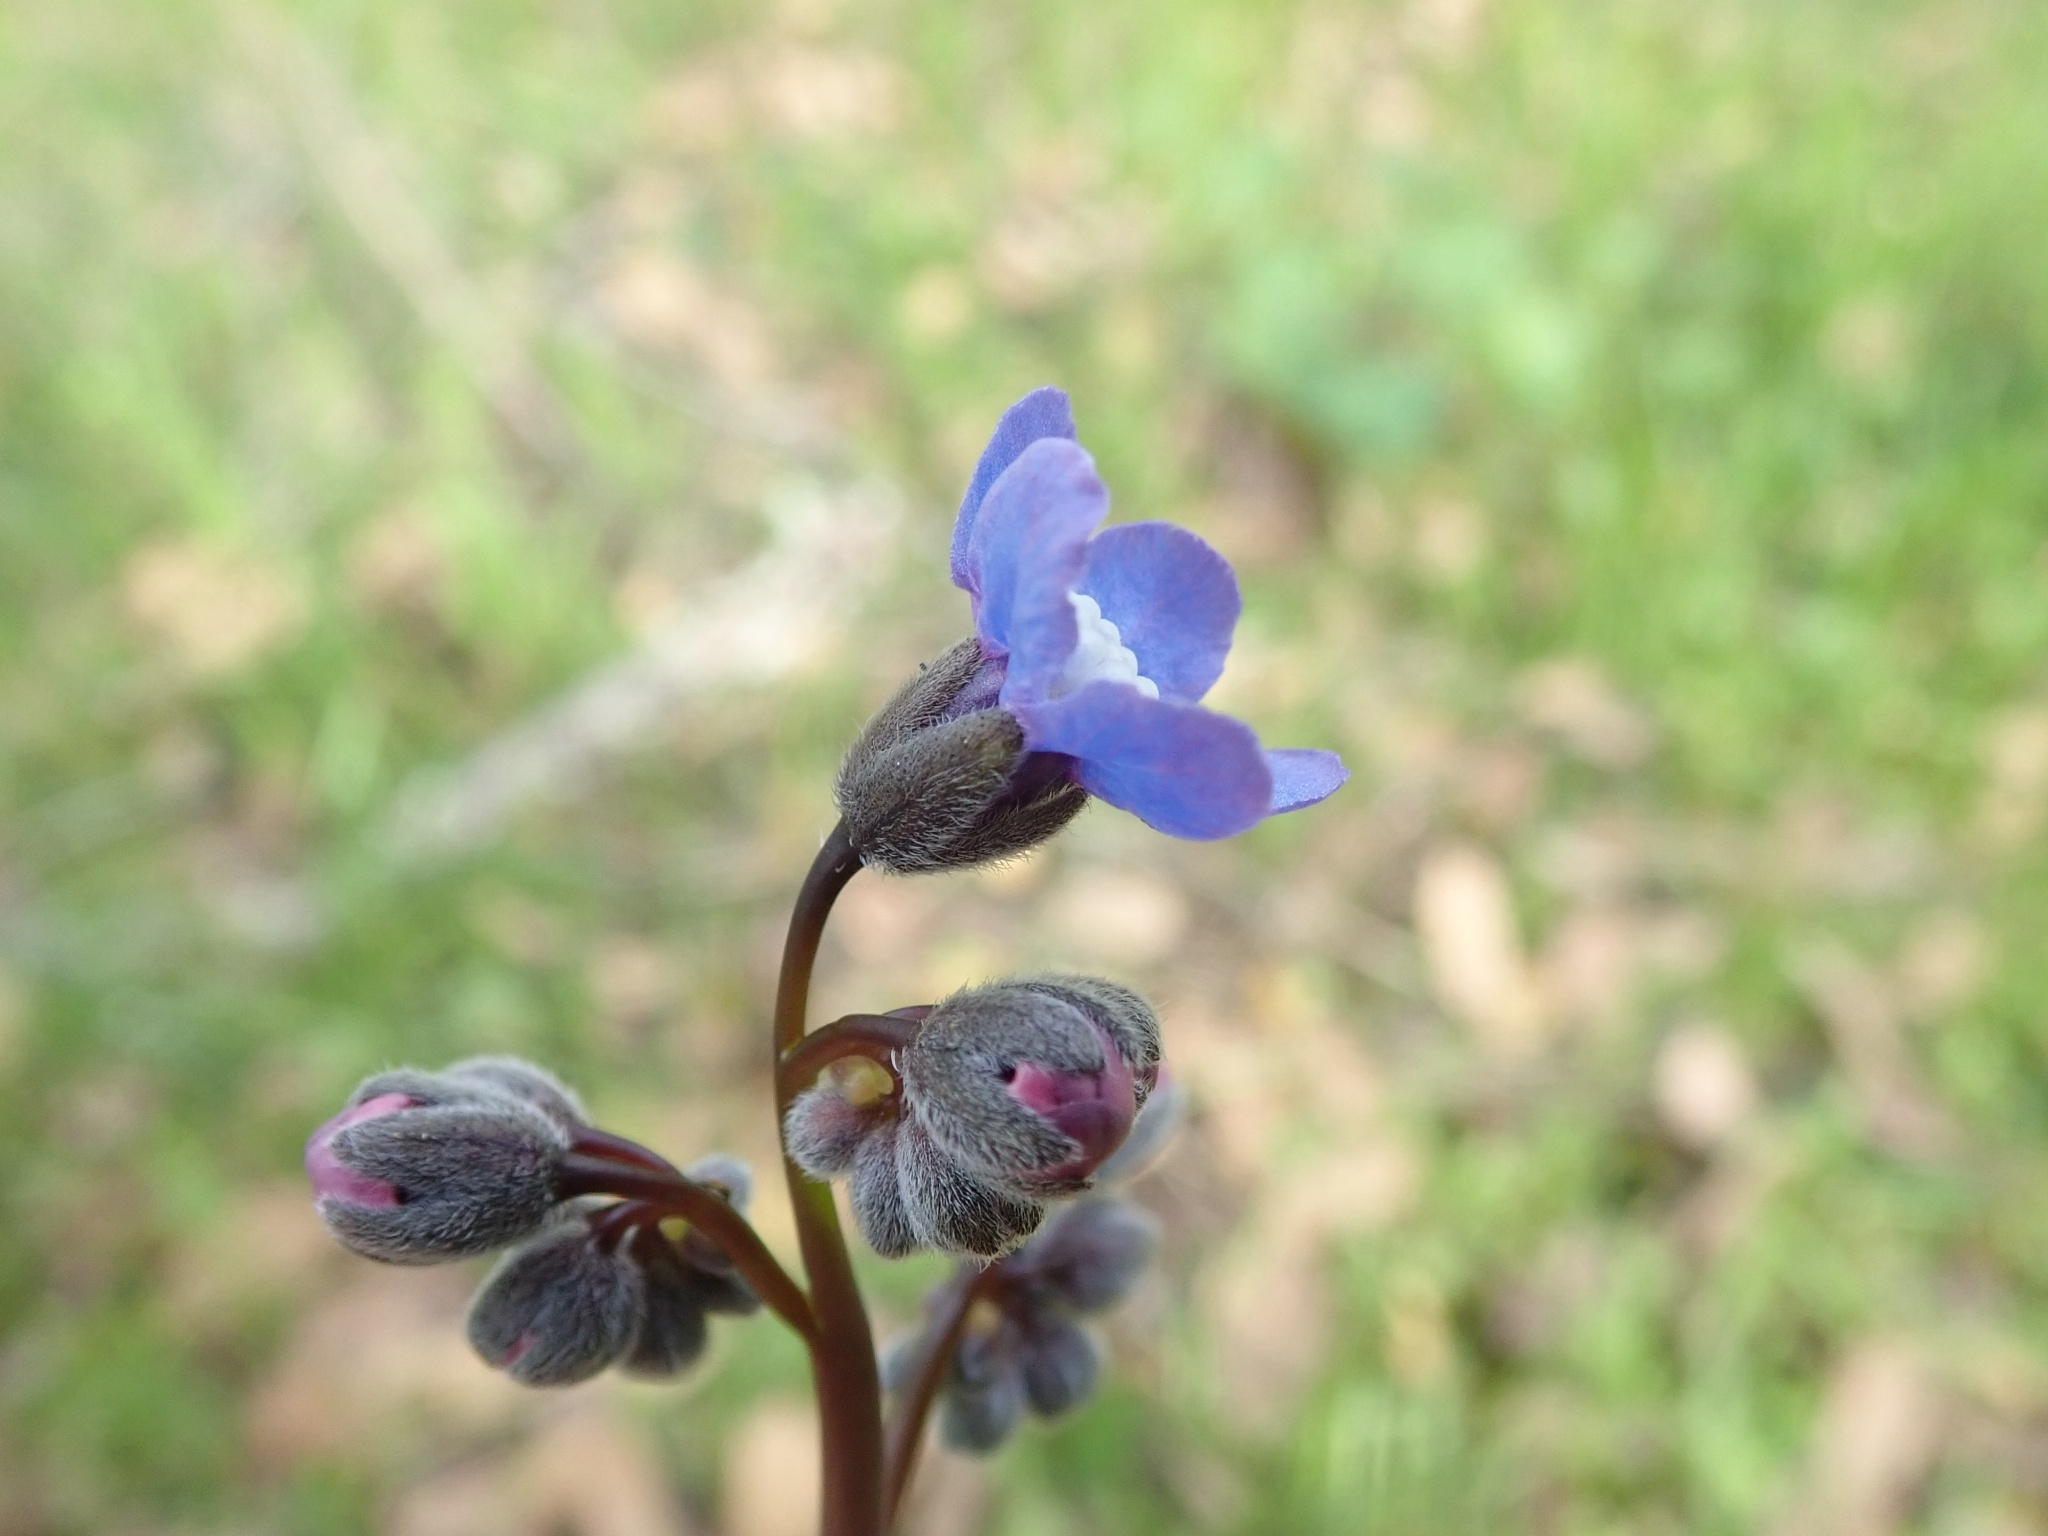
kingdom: Plantae
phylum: Tracheophyta
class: Magnoliopsida
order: Boraginales
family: Boraginaceae
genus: Adelinia
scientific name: Adelinia grande
